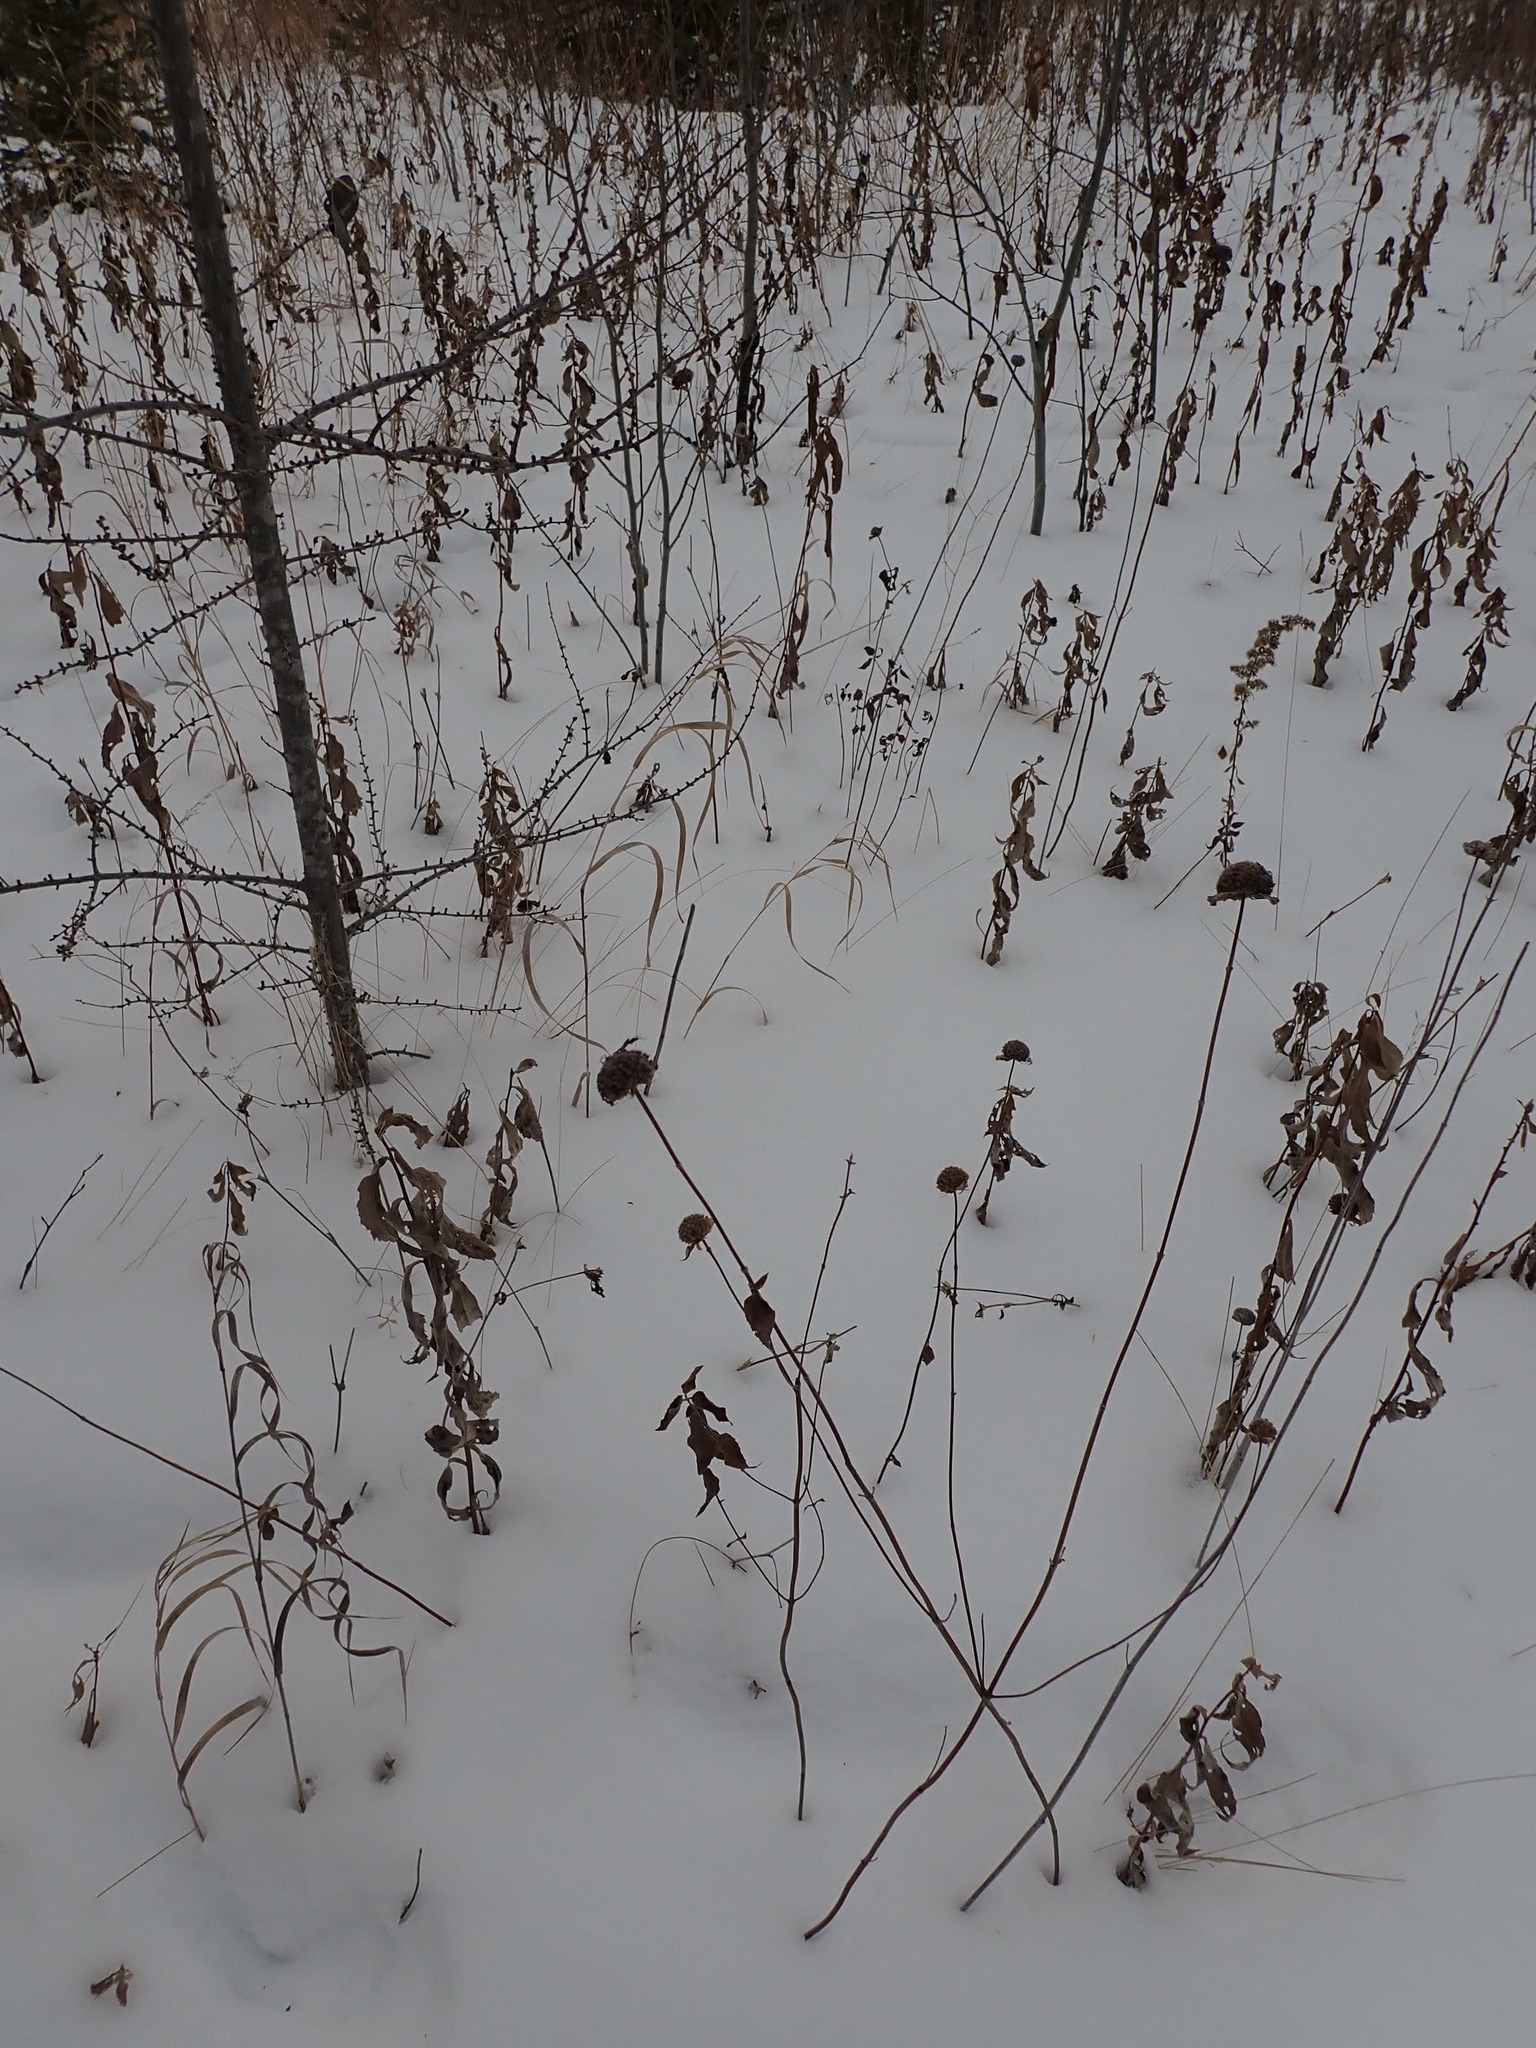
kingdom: Plantae
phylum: Tracheophyta
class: Magnoliopsida
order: Lamiales
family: Lamiaceae
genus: Monarda
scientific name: Monarda fistulosa
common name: Purple beebalm
